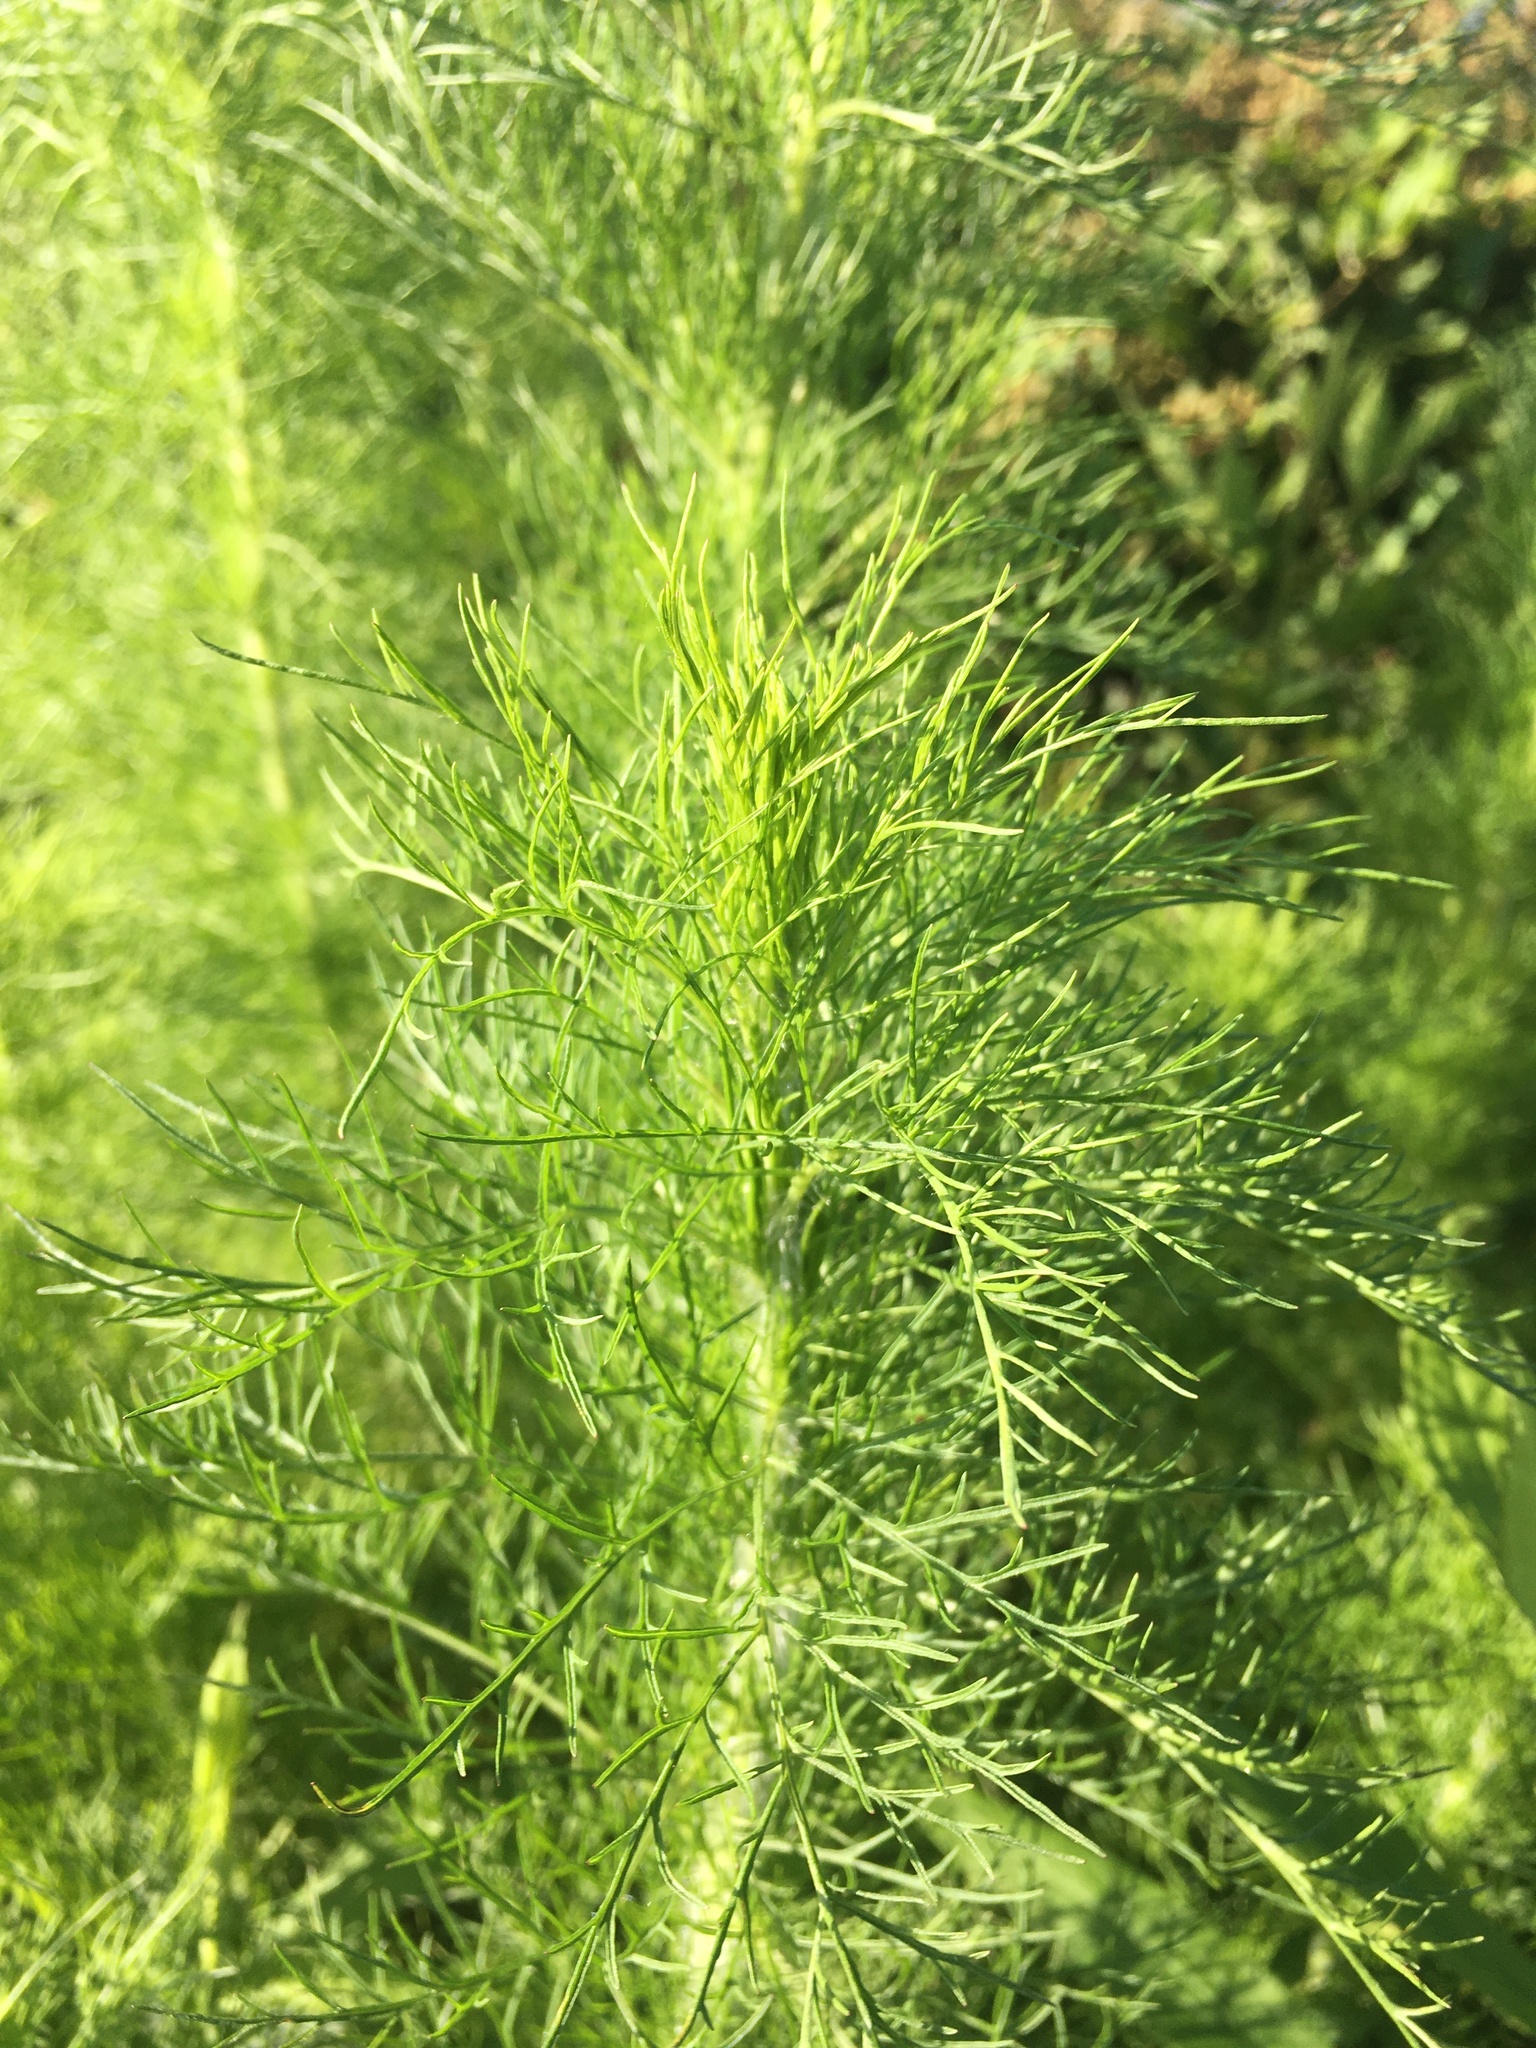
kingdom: Plantae
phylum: Tracheophyta
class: Magnoliopsida
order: Asterales
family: Asteraceae
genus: Eupatorium
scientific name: Eupatorium capillifolium
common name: Dog-fennel
